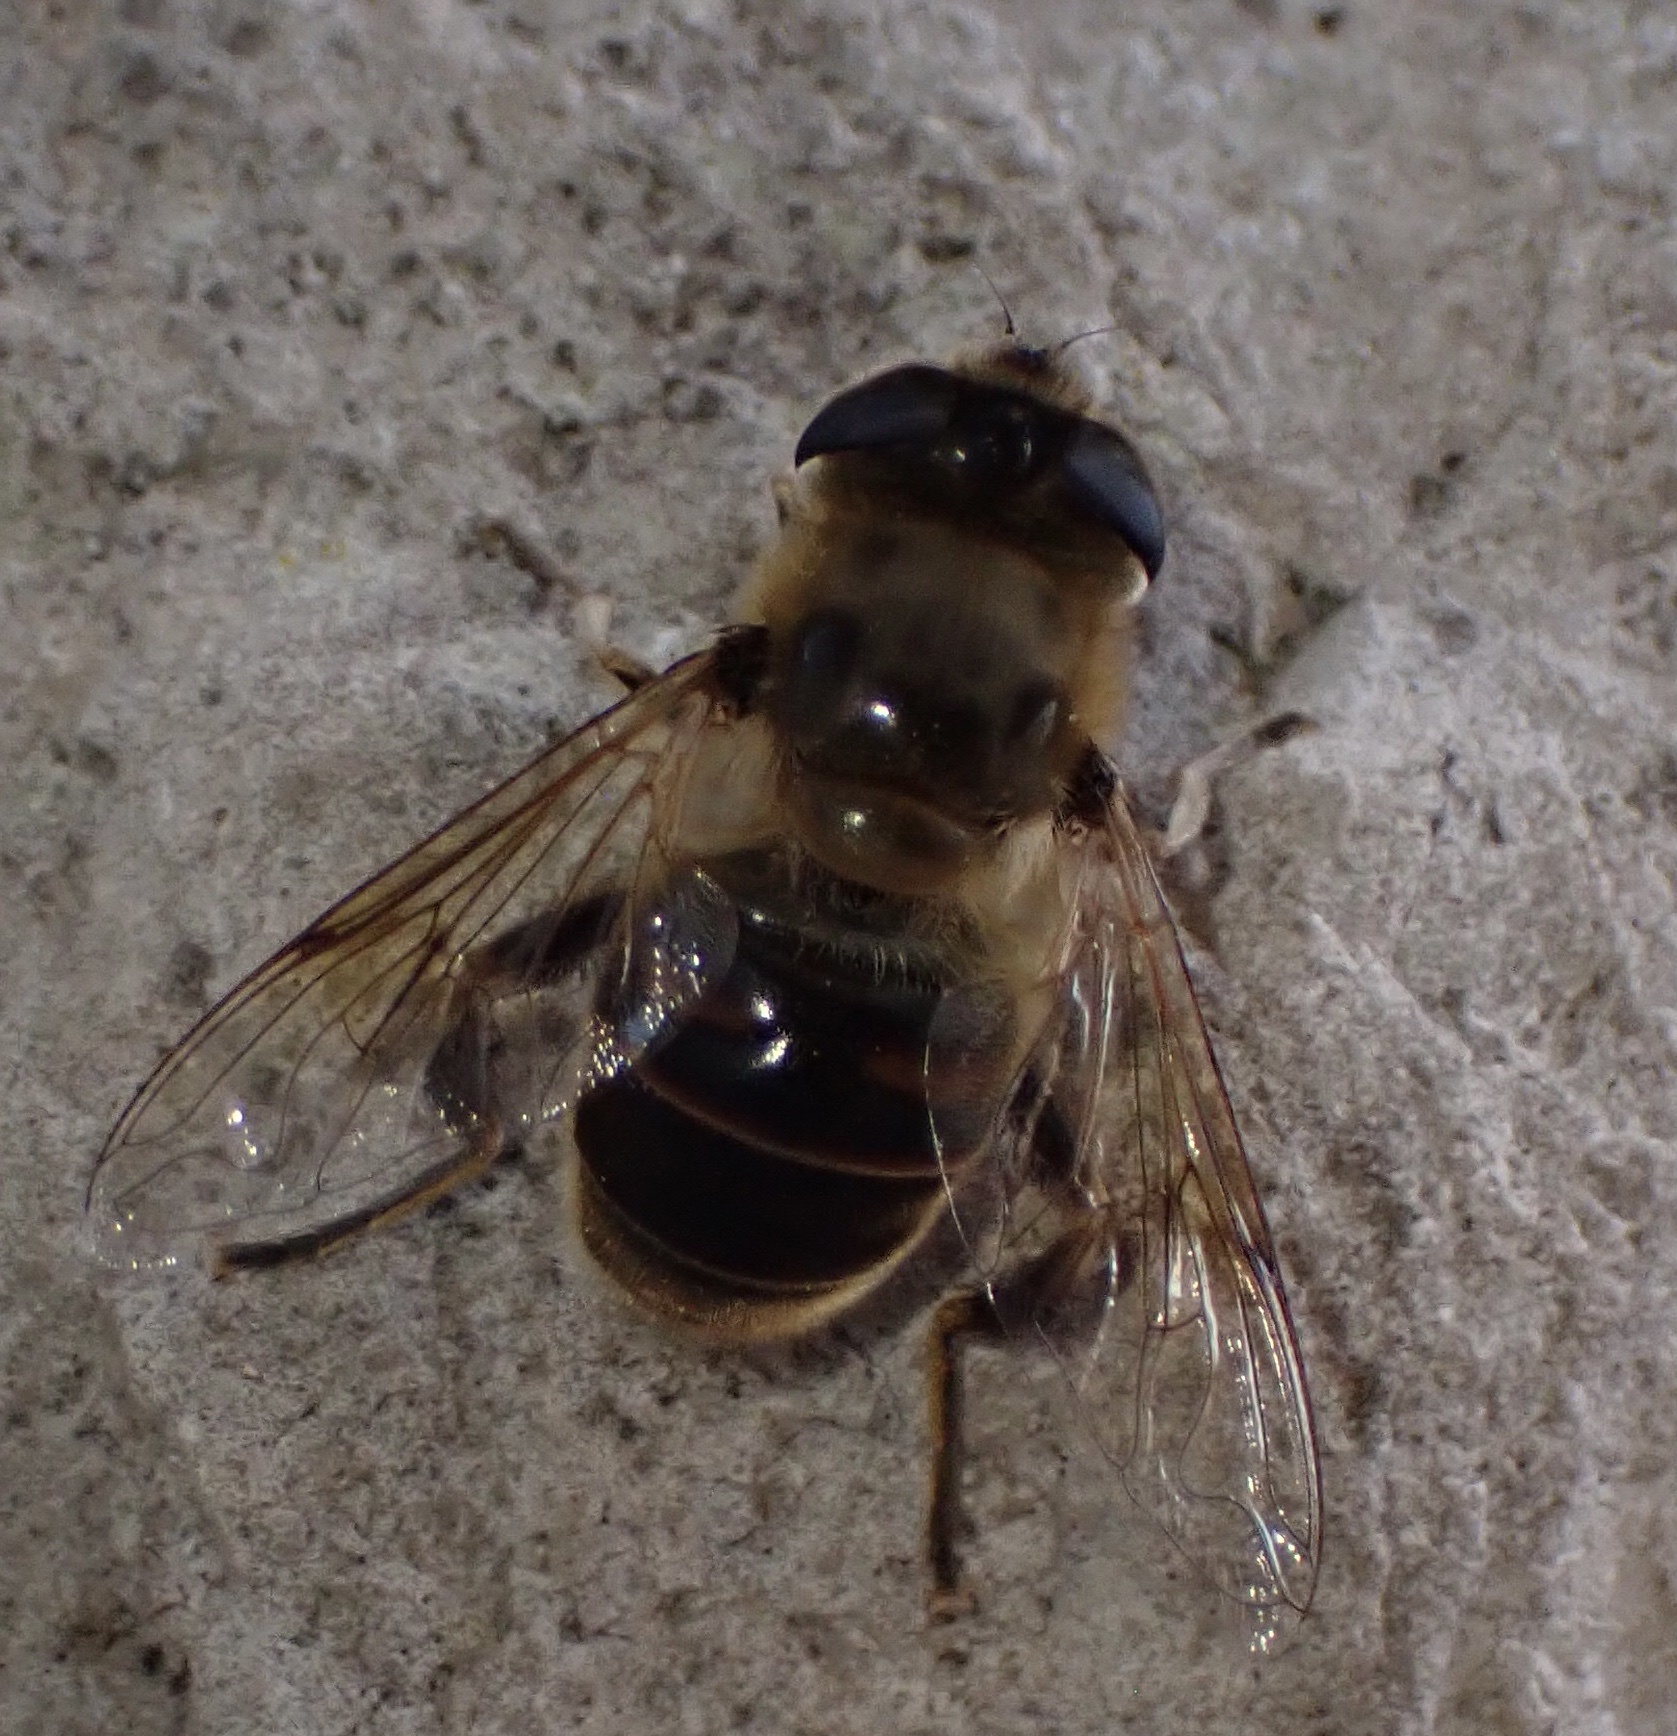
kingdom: Animalia
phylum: Arthropoda
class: Insecta
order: Diptera
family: Syrphidae
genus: Eristalis
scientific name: Eristalis tenax
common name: Drone fly
